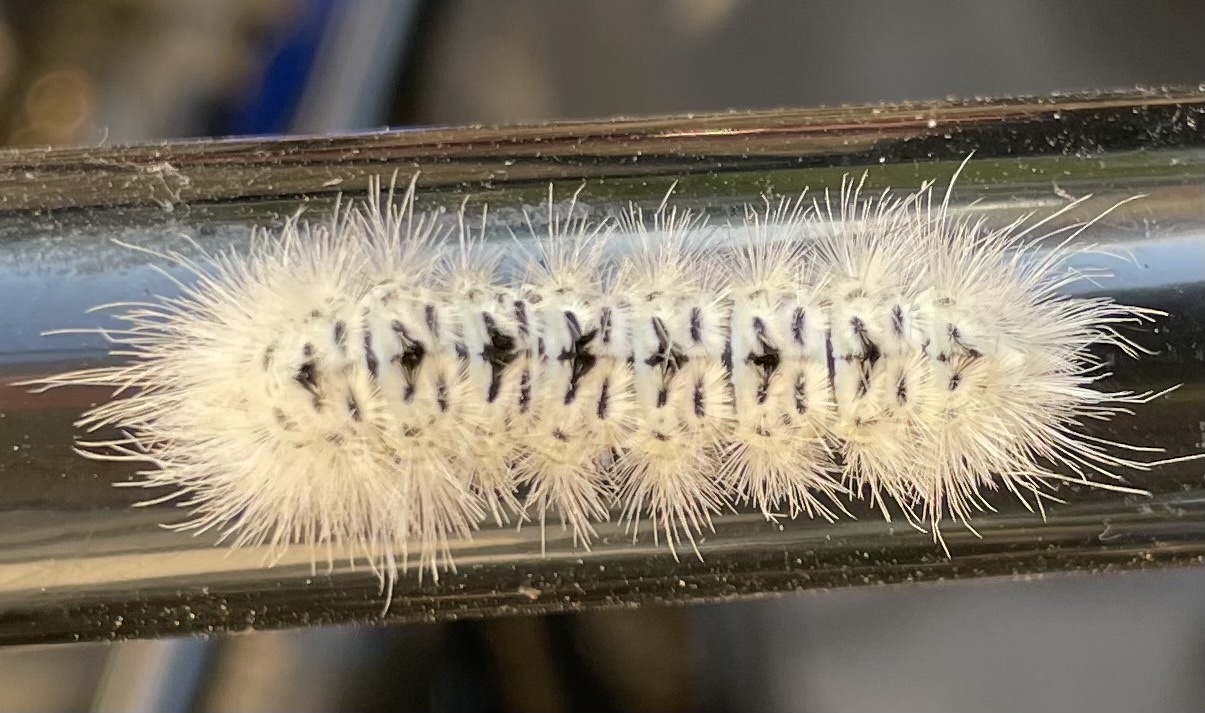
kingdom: Animalia
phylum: Arthropoda
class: Insecta
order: Lepidoptera
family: Erebidae
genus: Lophocampa
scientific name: Lophocampa caryae
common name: Hickory tussock moth
